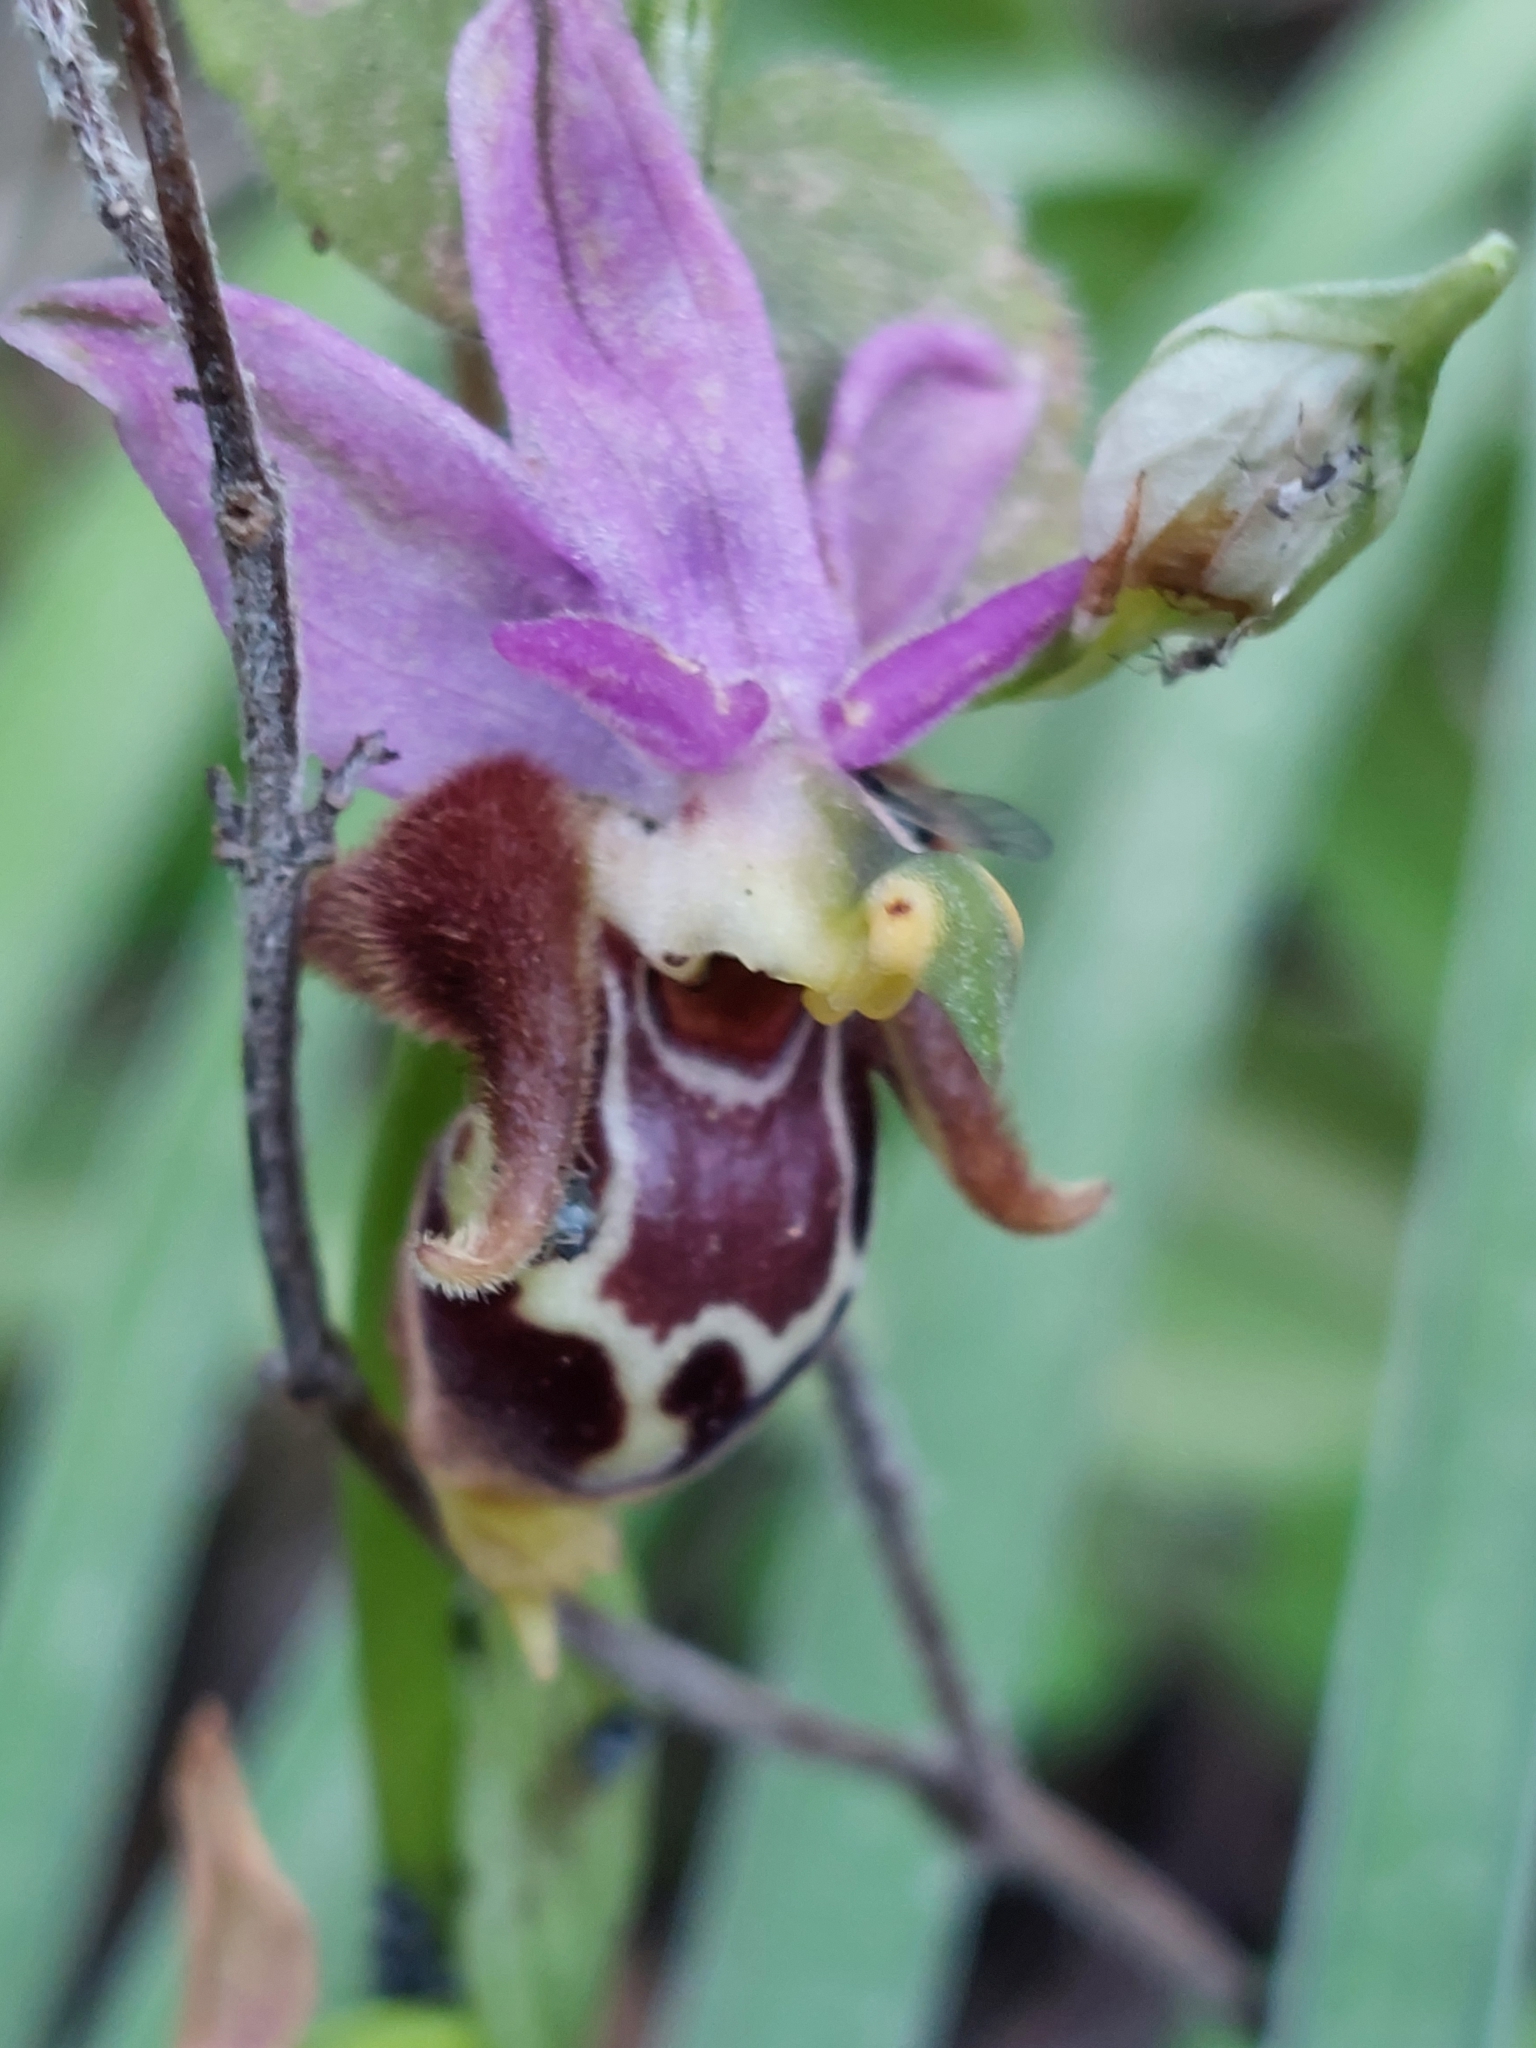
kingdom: Plantae
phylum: Tracheophyta
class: Liliopsida
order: Asparagales
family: Orchidaceae
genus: Ophrys
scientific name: Ophrys
